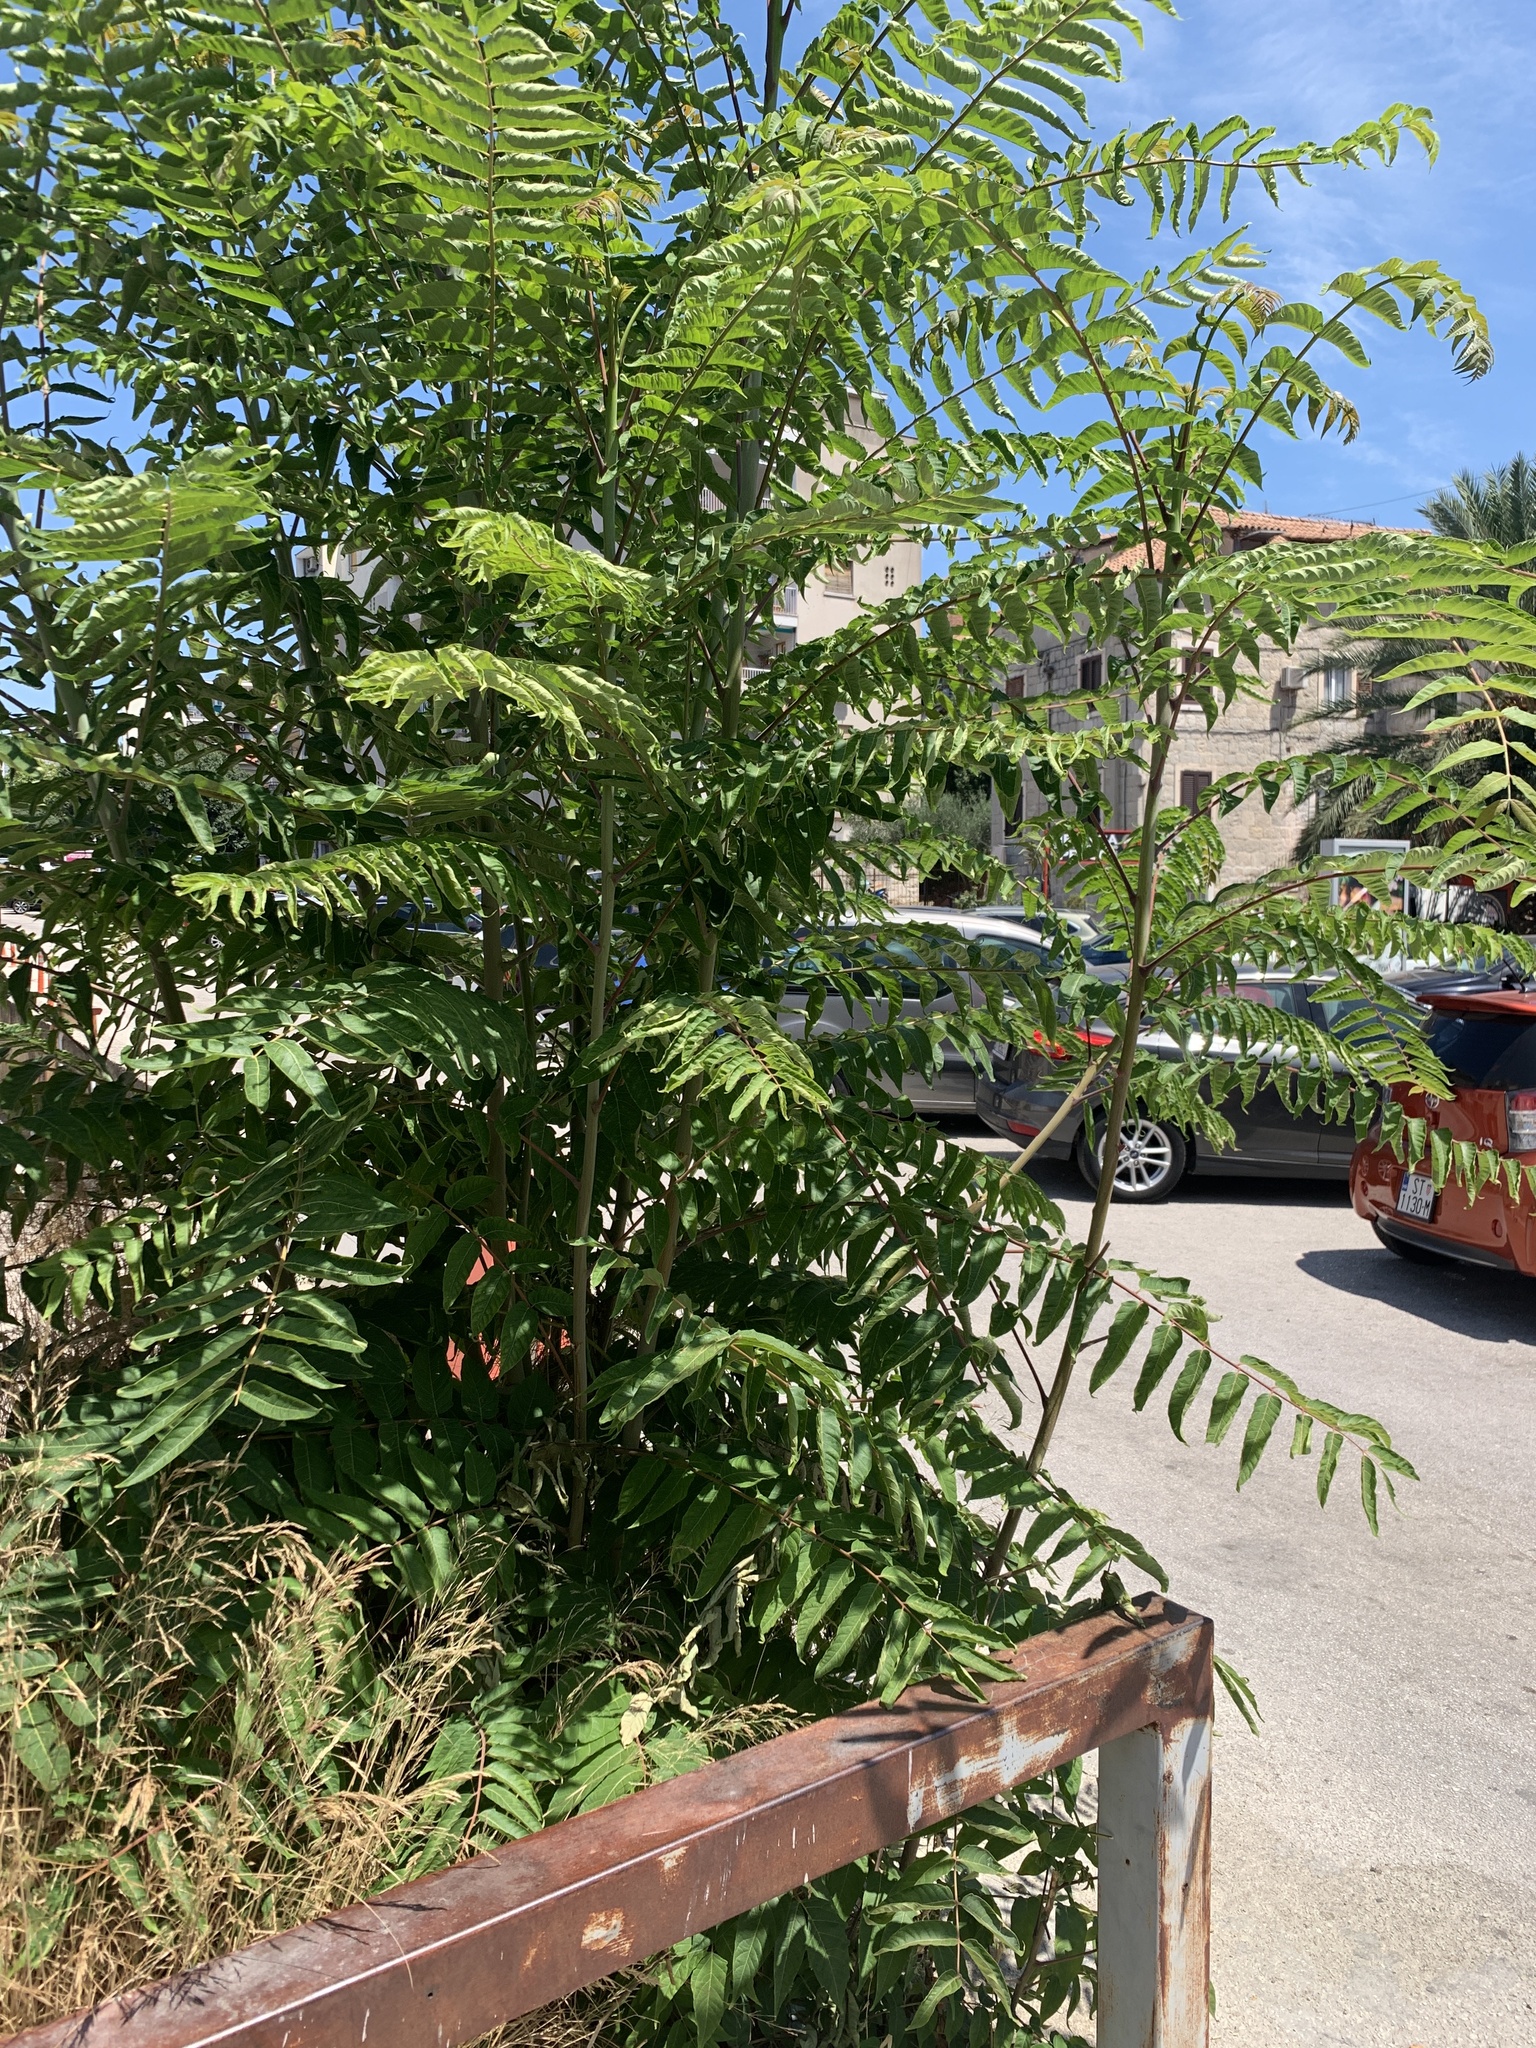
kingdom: Plantae
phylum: Tracheophyta
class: Magnoliopsida
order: Sapindales
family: Simaroubaceae
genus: Ailanthus
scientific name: Ailanthus altissima
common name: Tree-of-heaven
